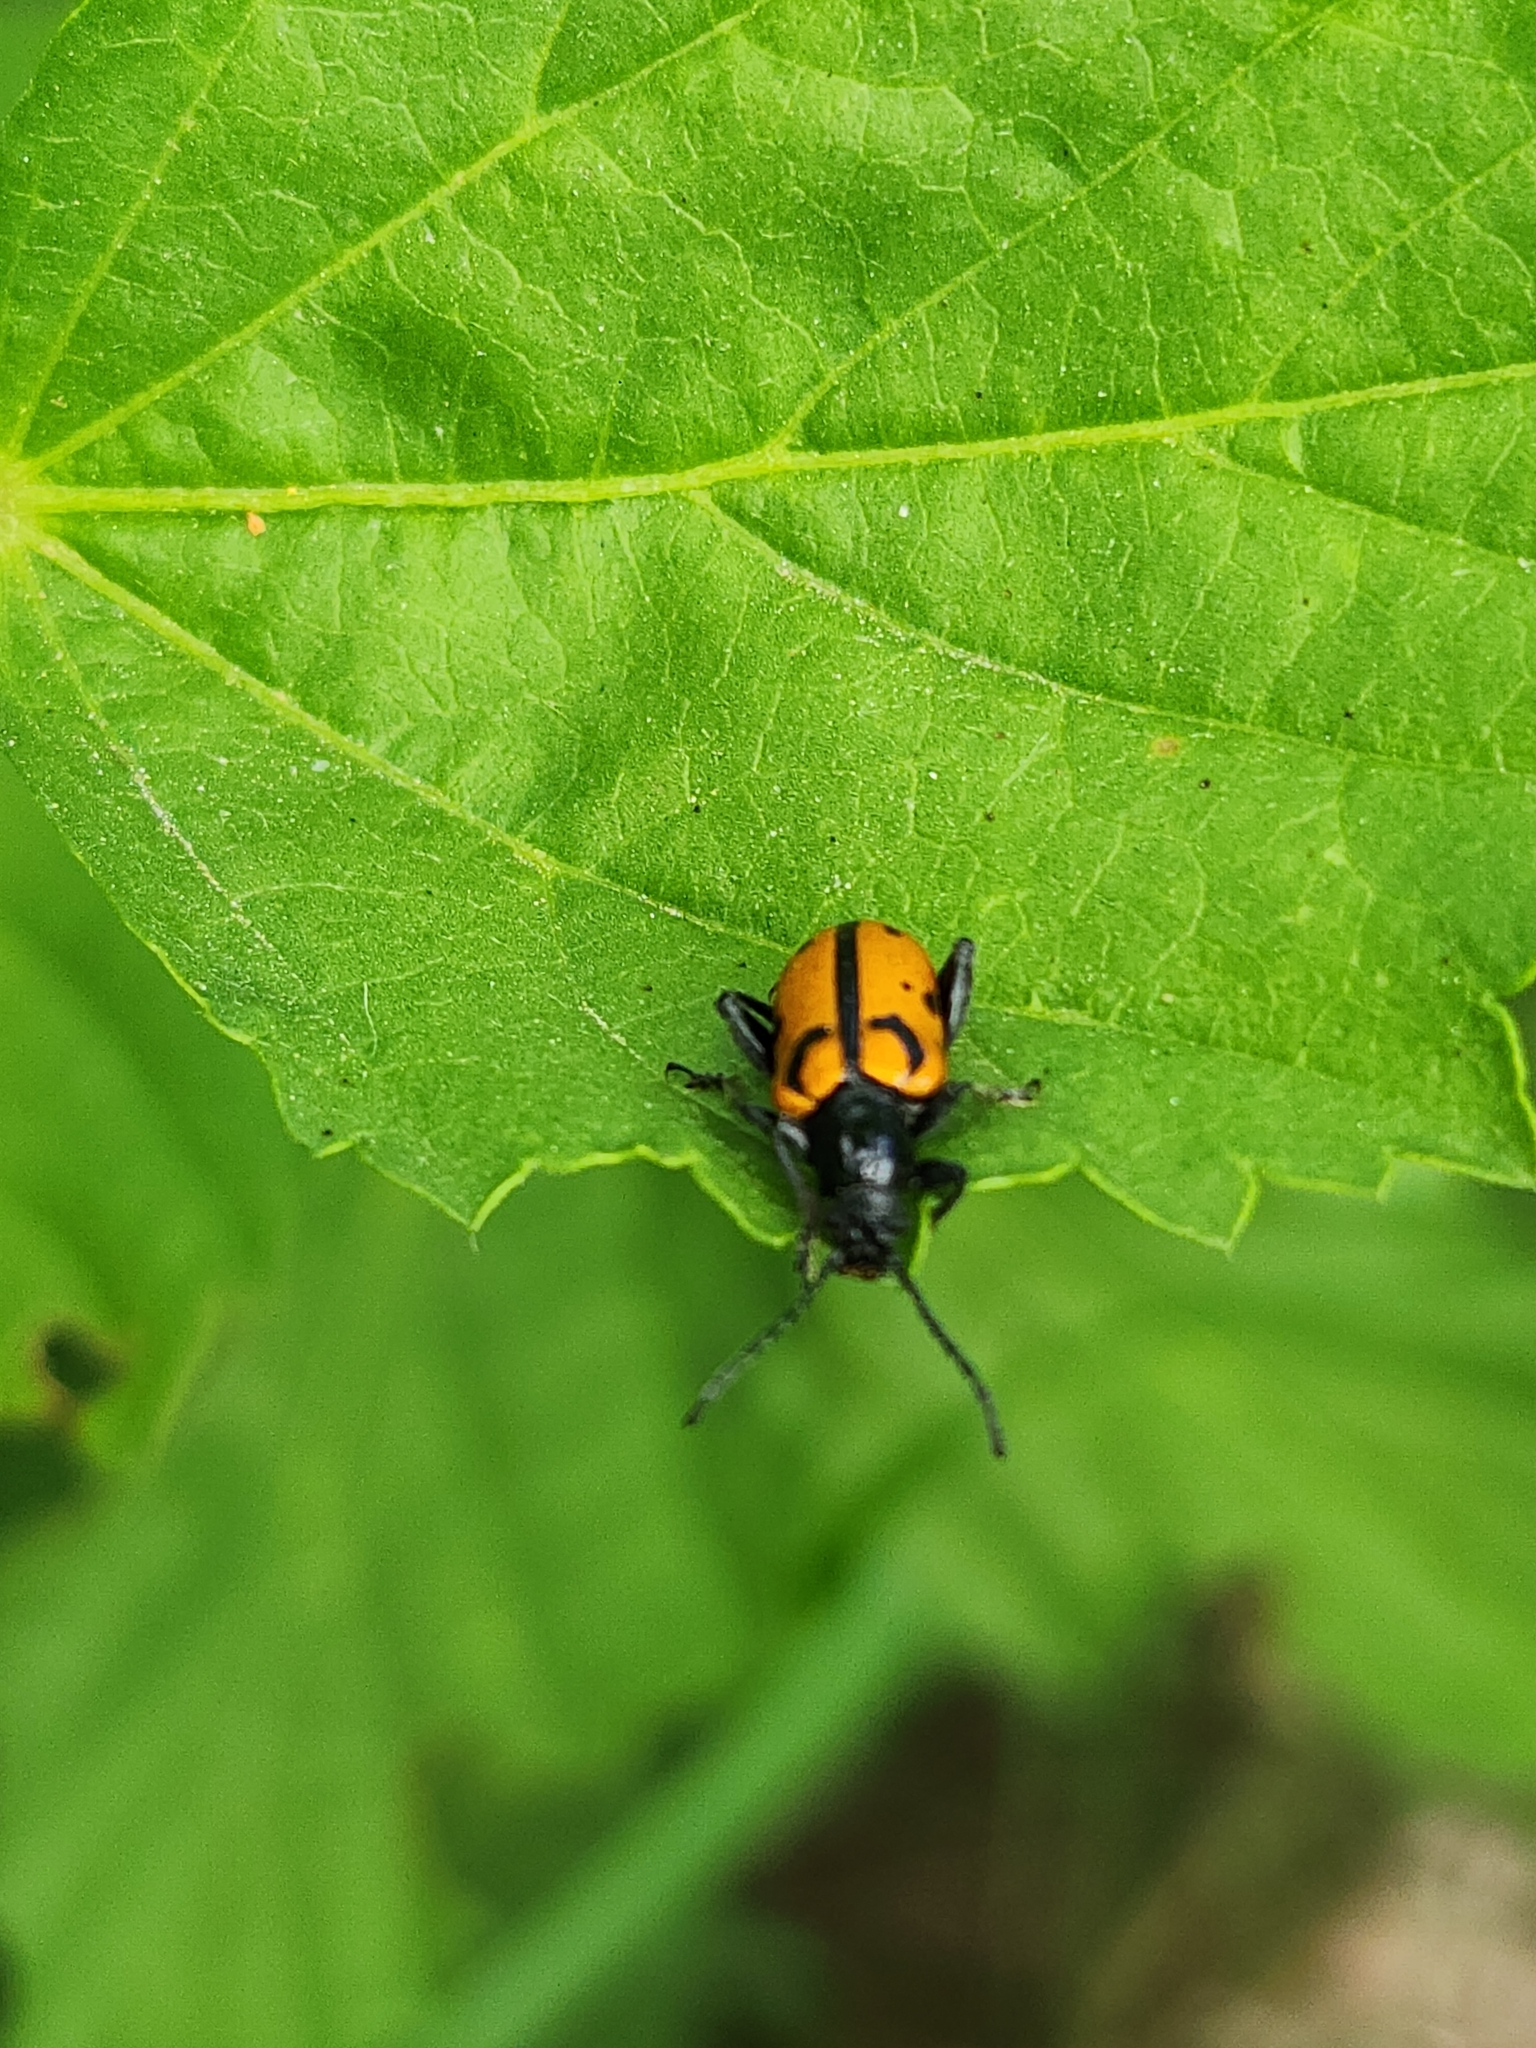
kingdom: Animalia
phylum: Arthropoda
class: Insecta
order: Coleoptera
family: Chrysomelidae
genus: Atalasis
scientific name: Atalasis
